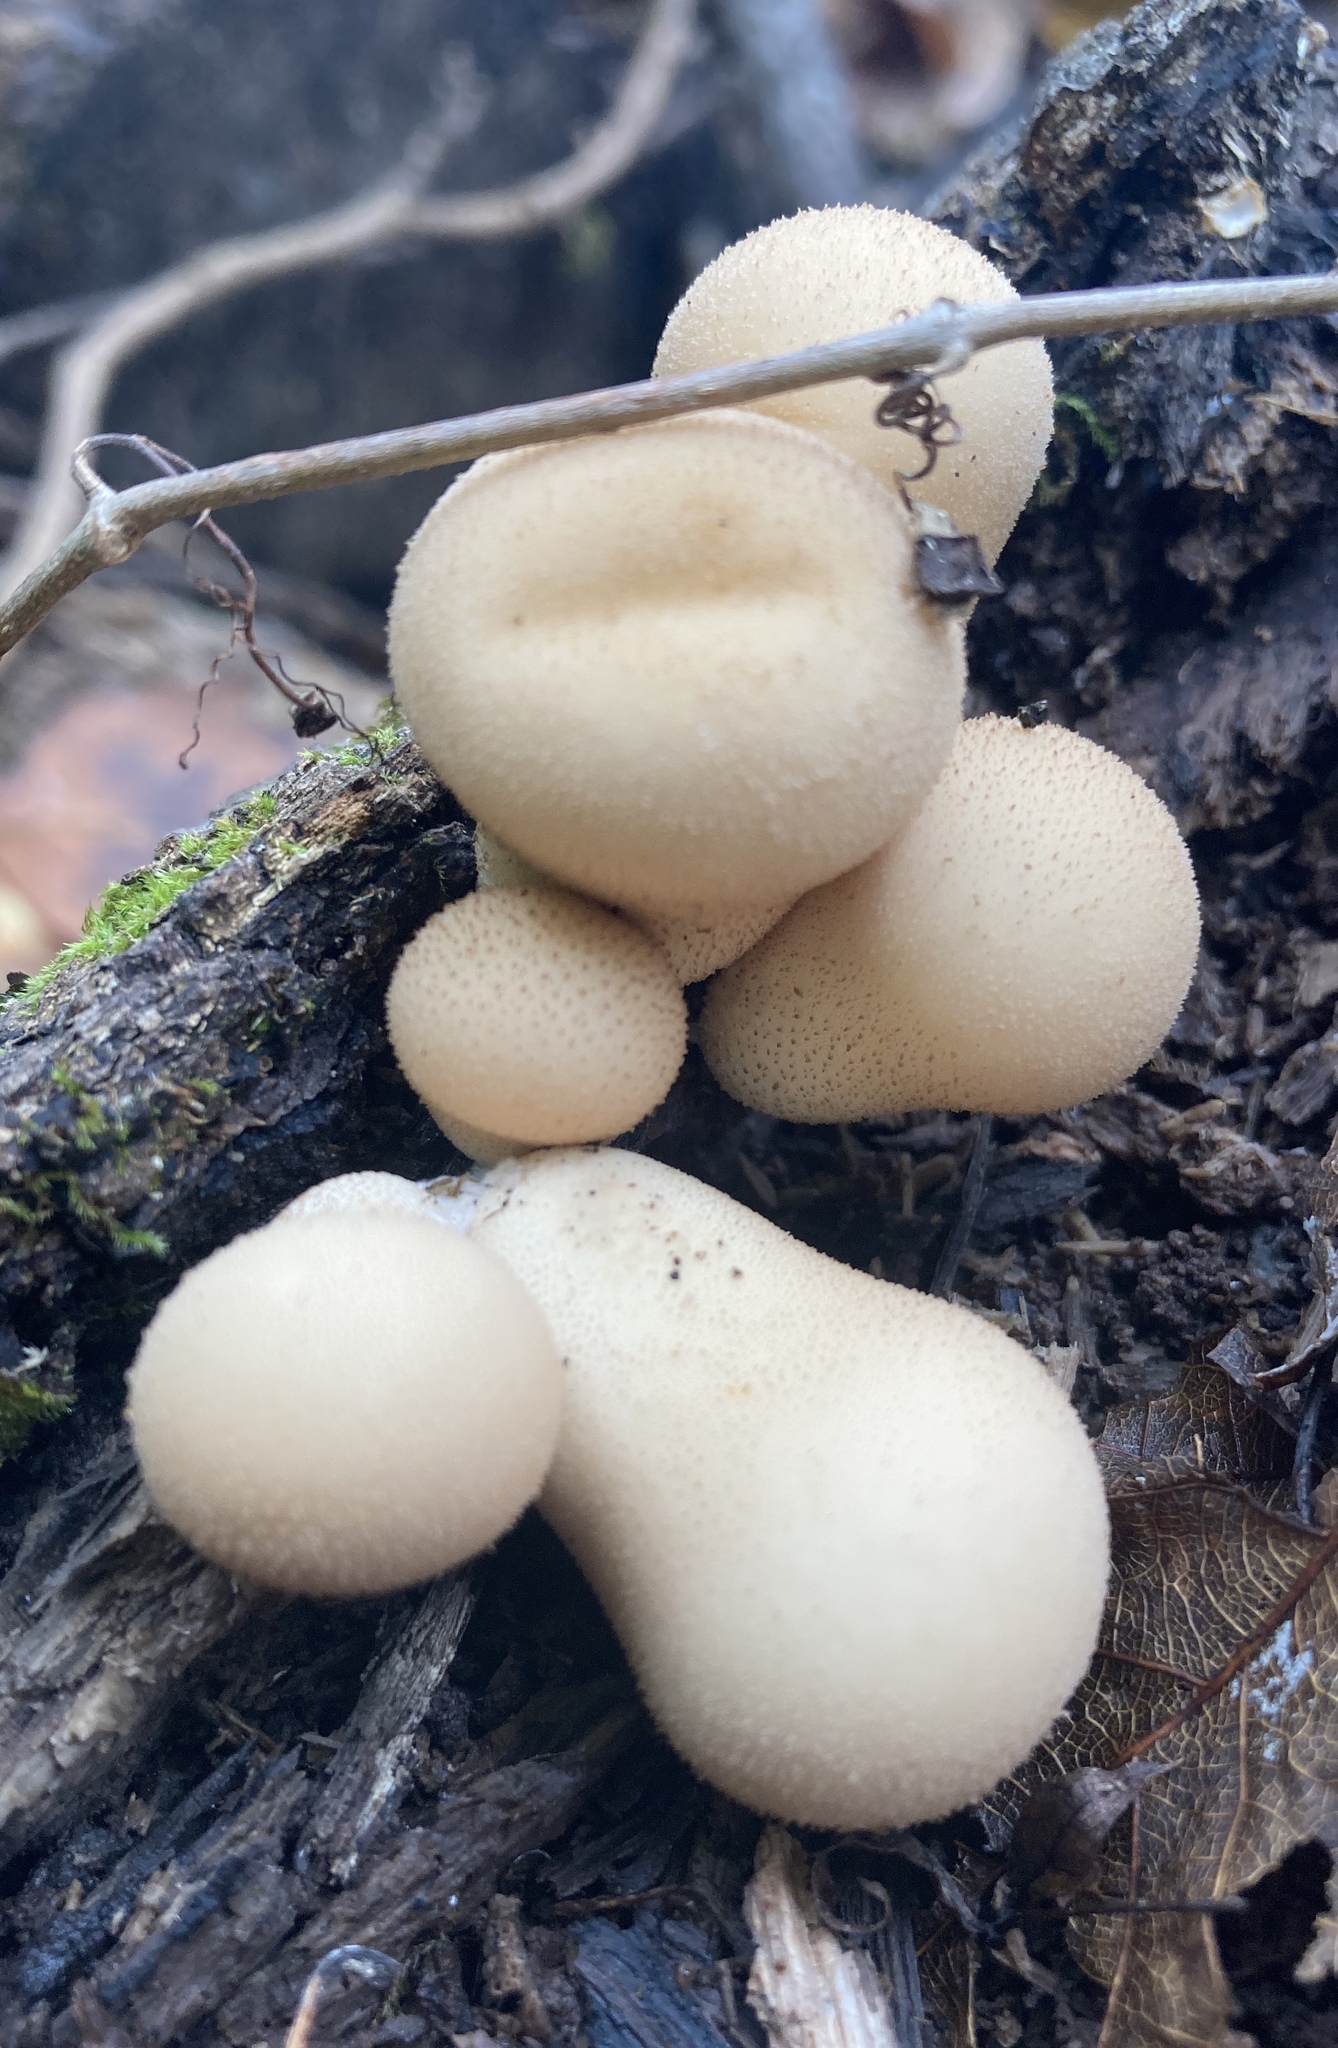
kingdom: Fungi
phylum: Basidiomycota
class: Agaricomycetes
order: Agaricales
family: Lycoperdaceae
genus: Apioperdon
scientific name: Apioperdon pyriforme
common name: Pear-shaped puffball
